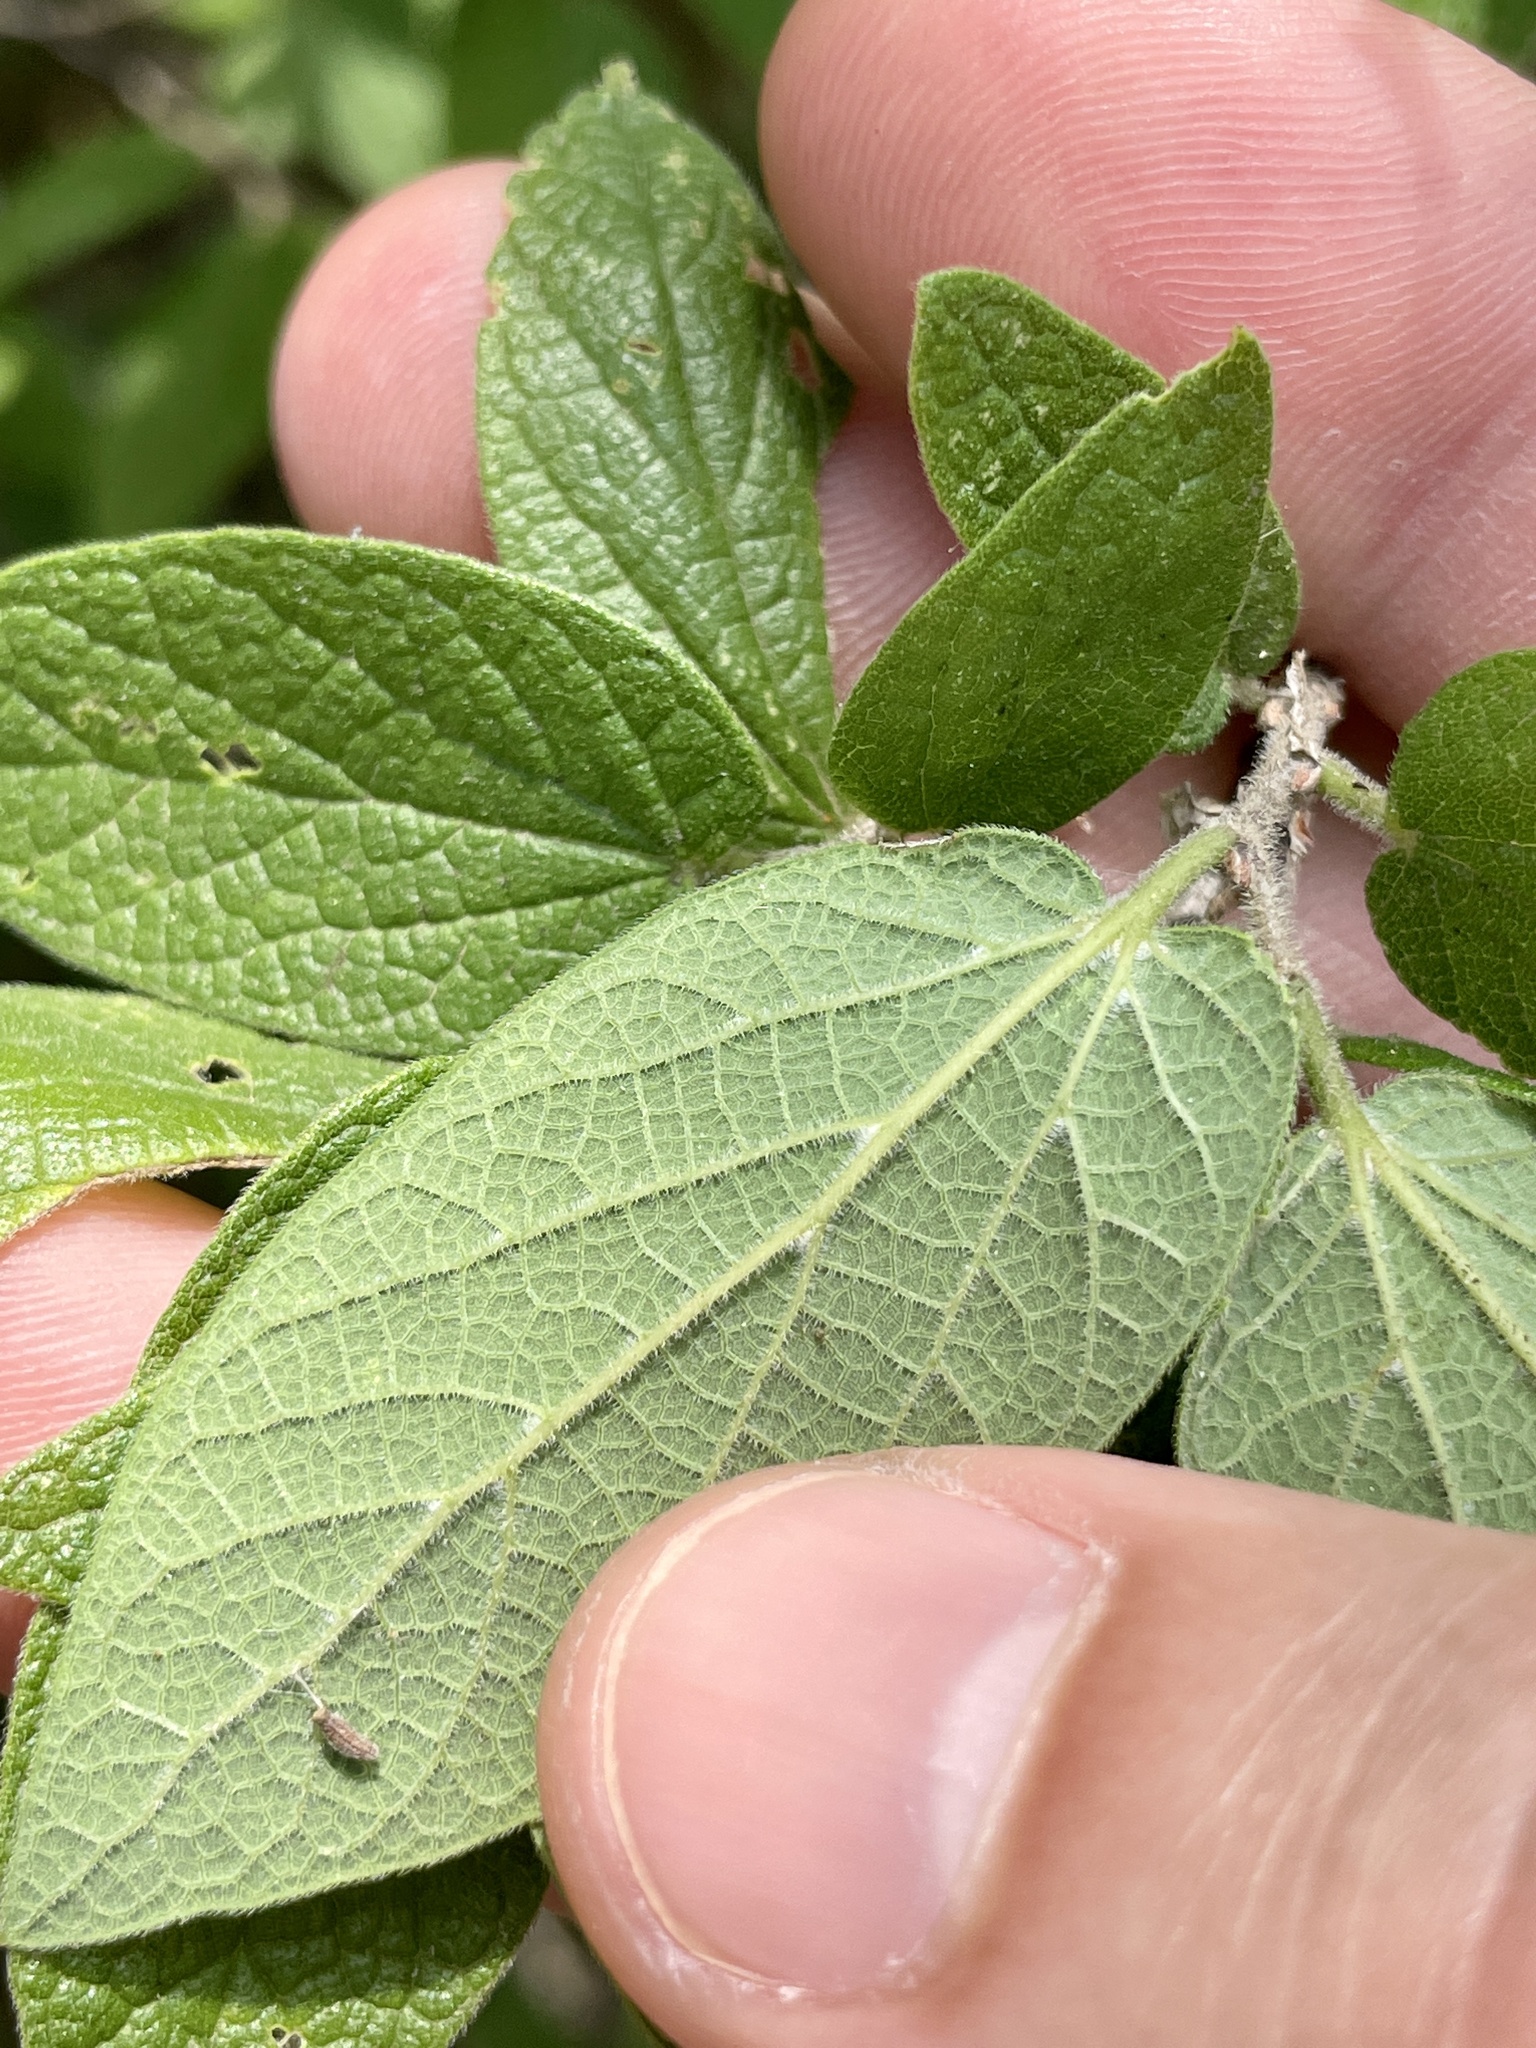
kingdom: Plantae
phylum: Tracheophyta
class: Magnoliopsida
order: Rosales
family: Cannabaceae
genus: Celtis
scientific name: Celtis reticulata
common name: Netleaf hackberry
